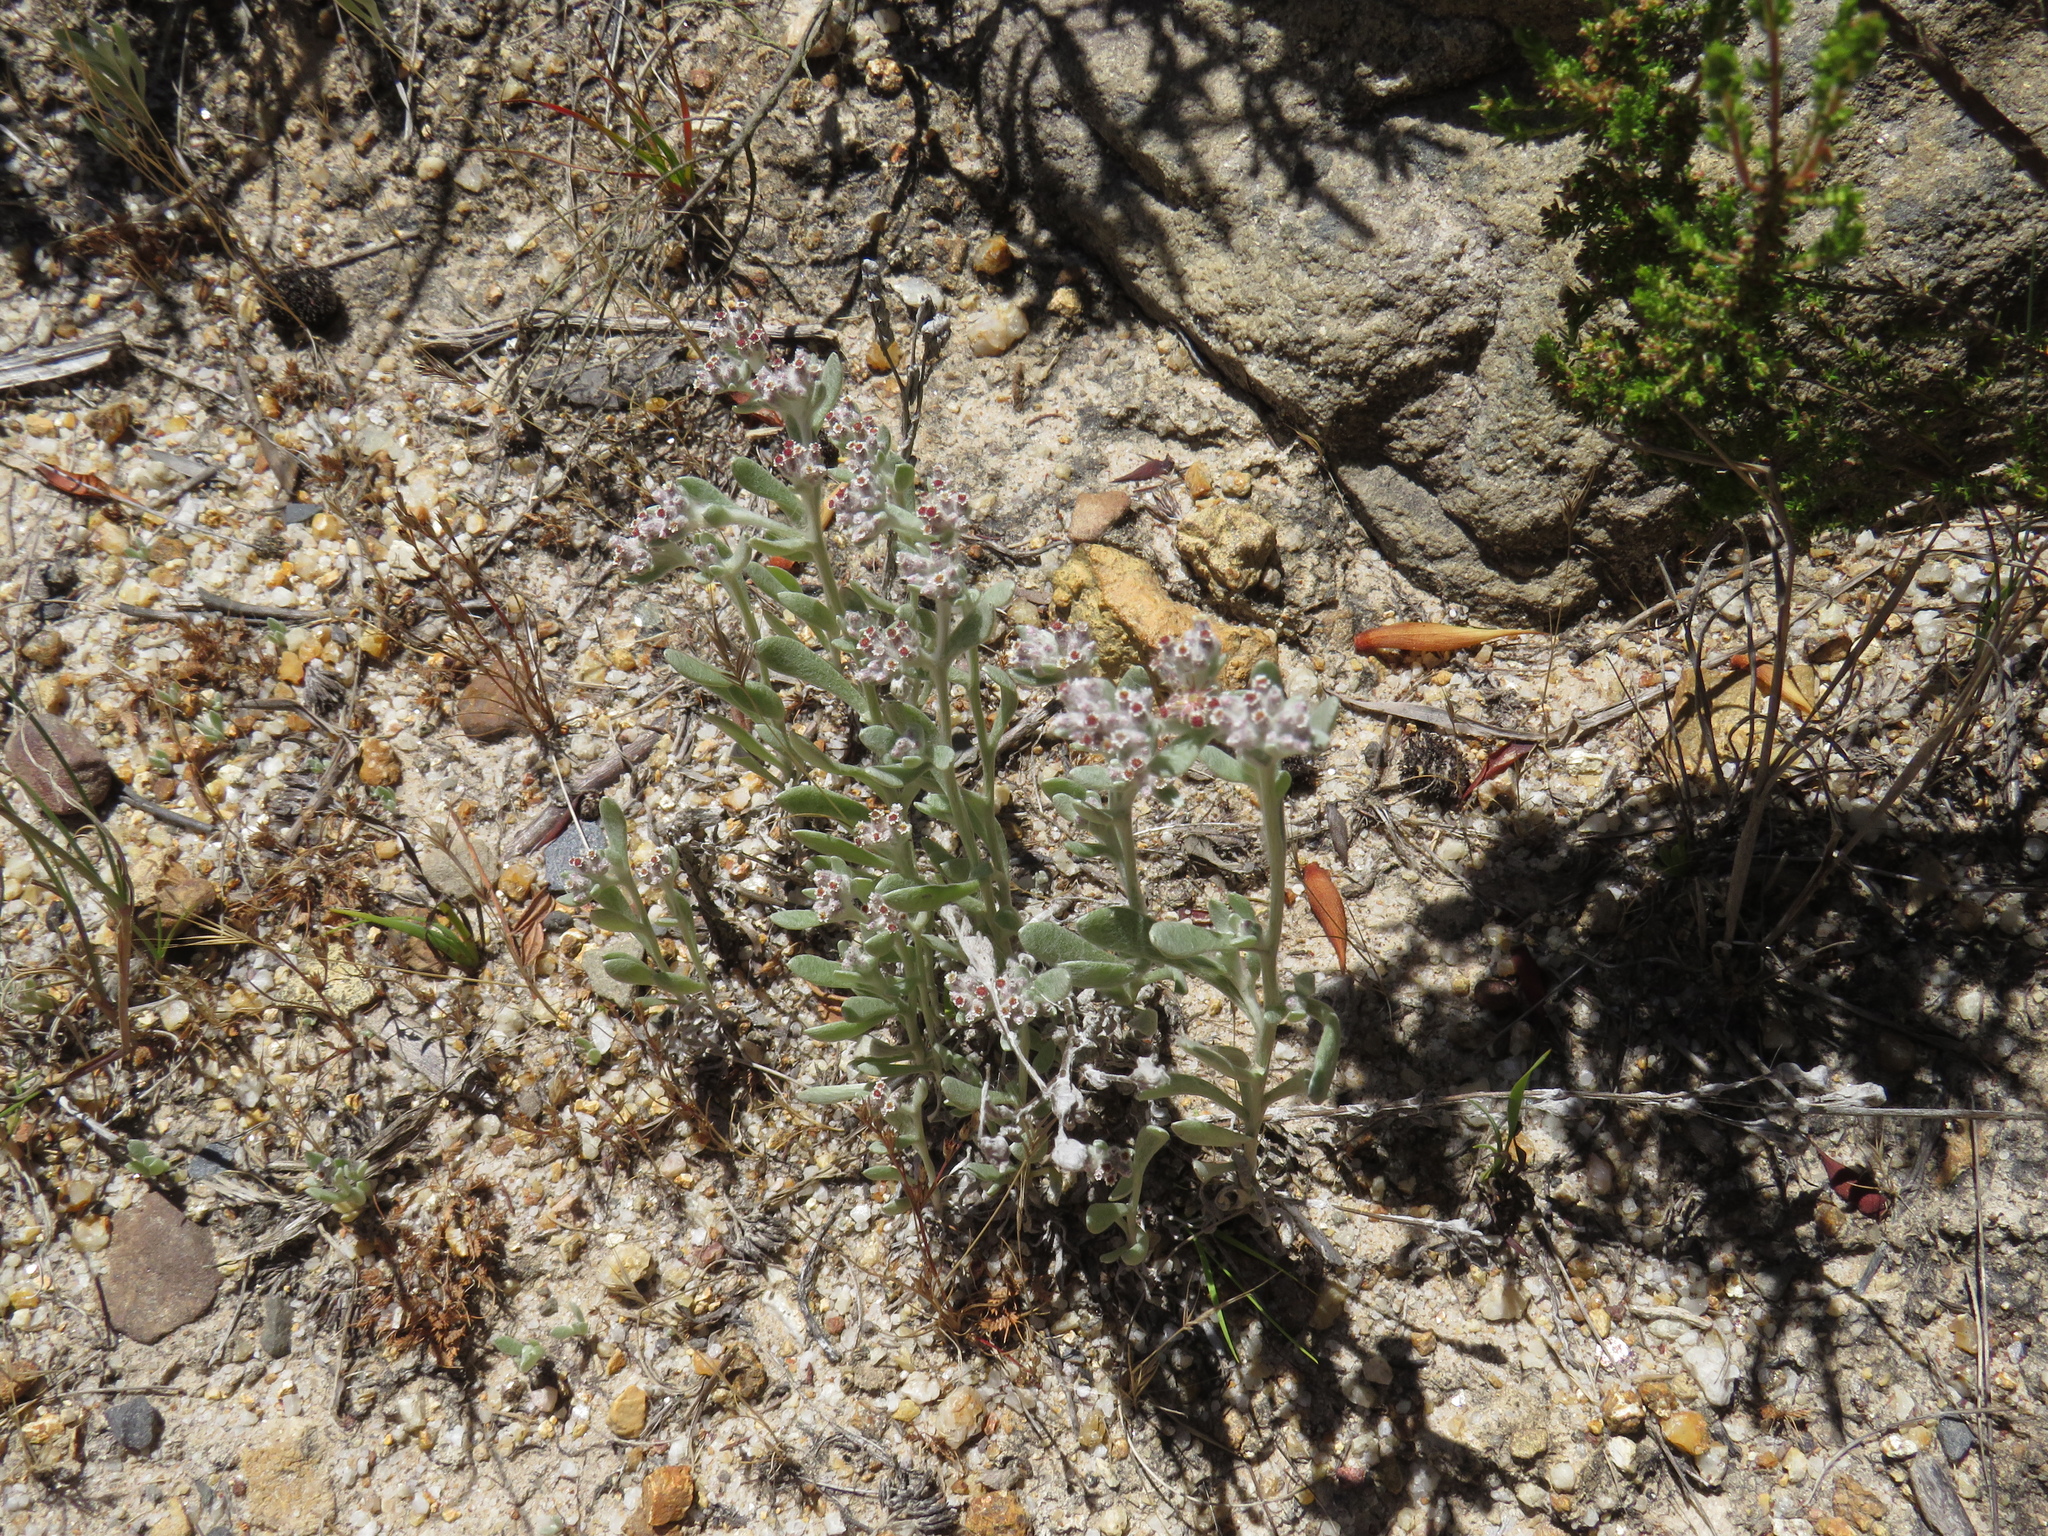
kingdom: Plantae
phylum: Tracheophyta
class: Magnoliopsida
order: Asterales
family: Asteraceae
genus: Vellereophyton
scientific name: Vellereophyton dealbatum
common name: White-cudweed
